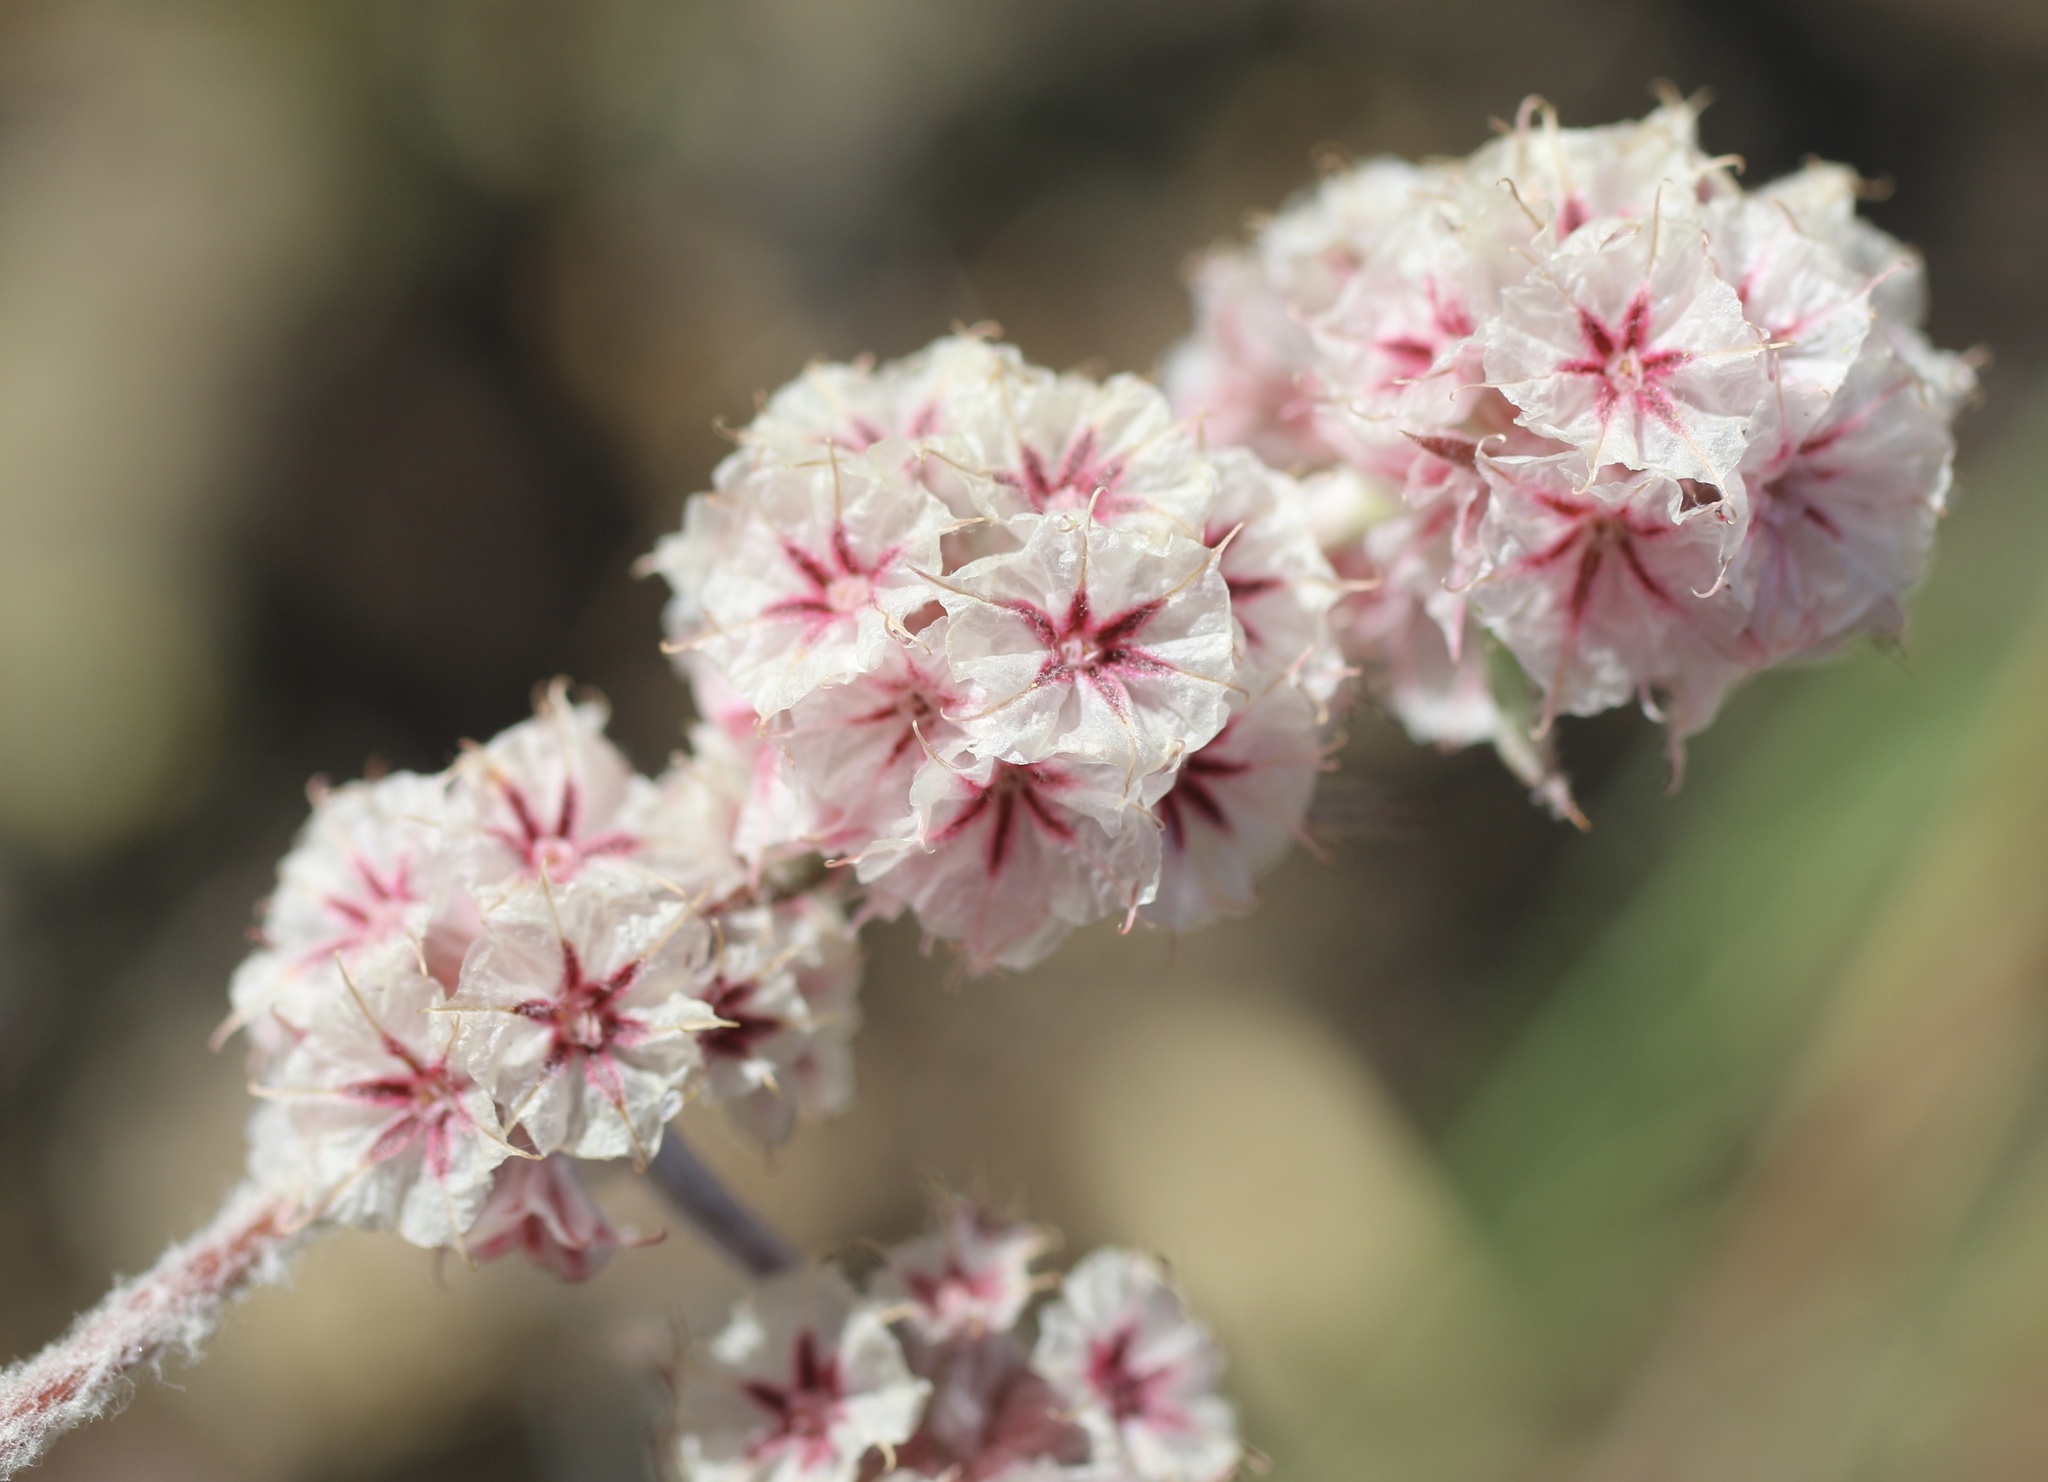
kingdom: Plantae
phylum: Tracheophyta
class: Magnoliopsida
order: Caryophyllales
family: Polygonaceae
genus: Chorizanthe
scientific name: Chorizanthe membranacea
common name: Pink spineflower
